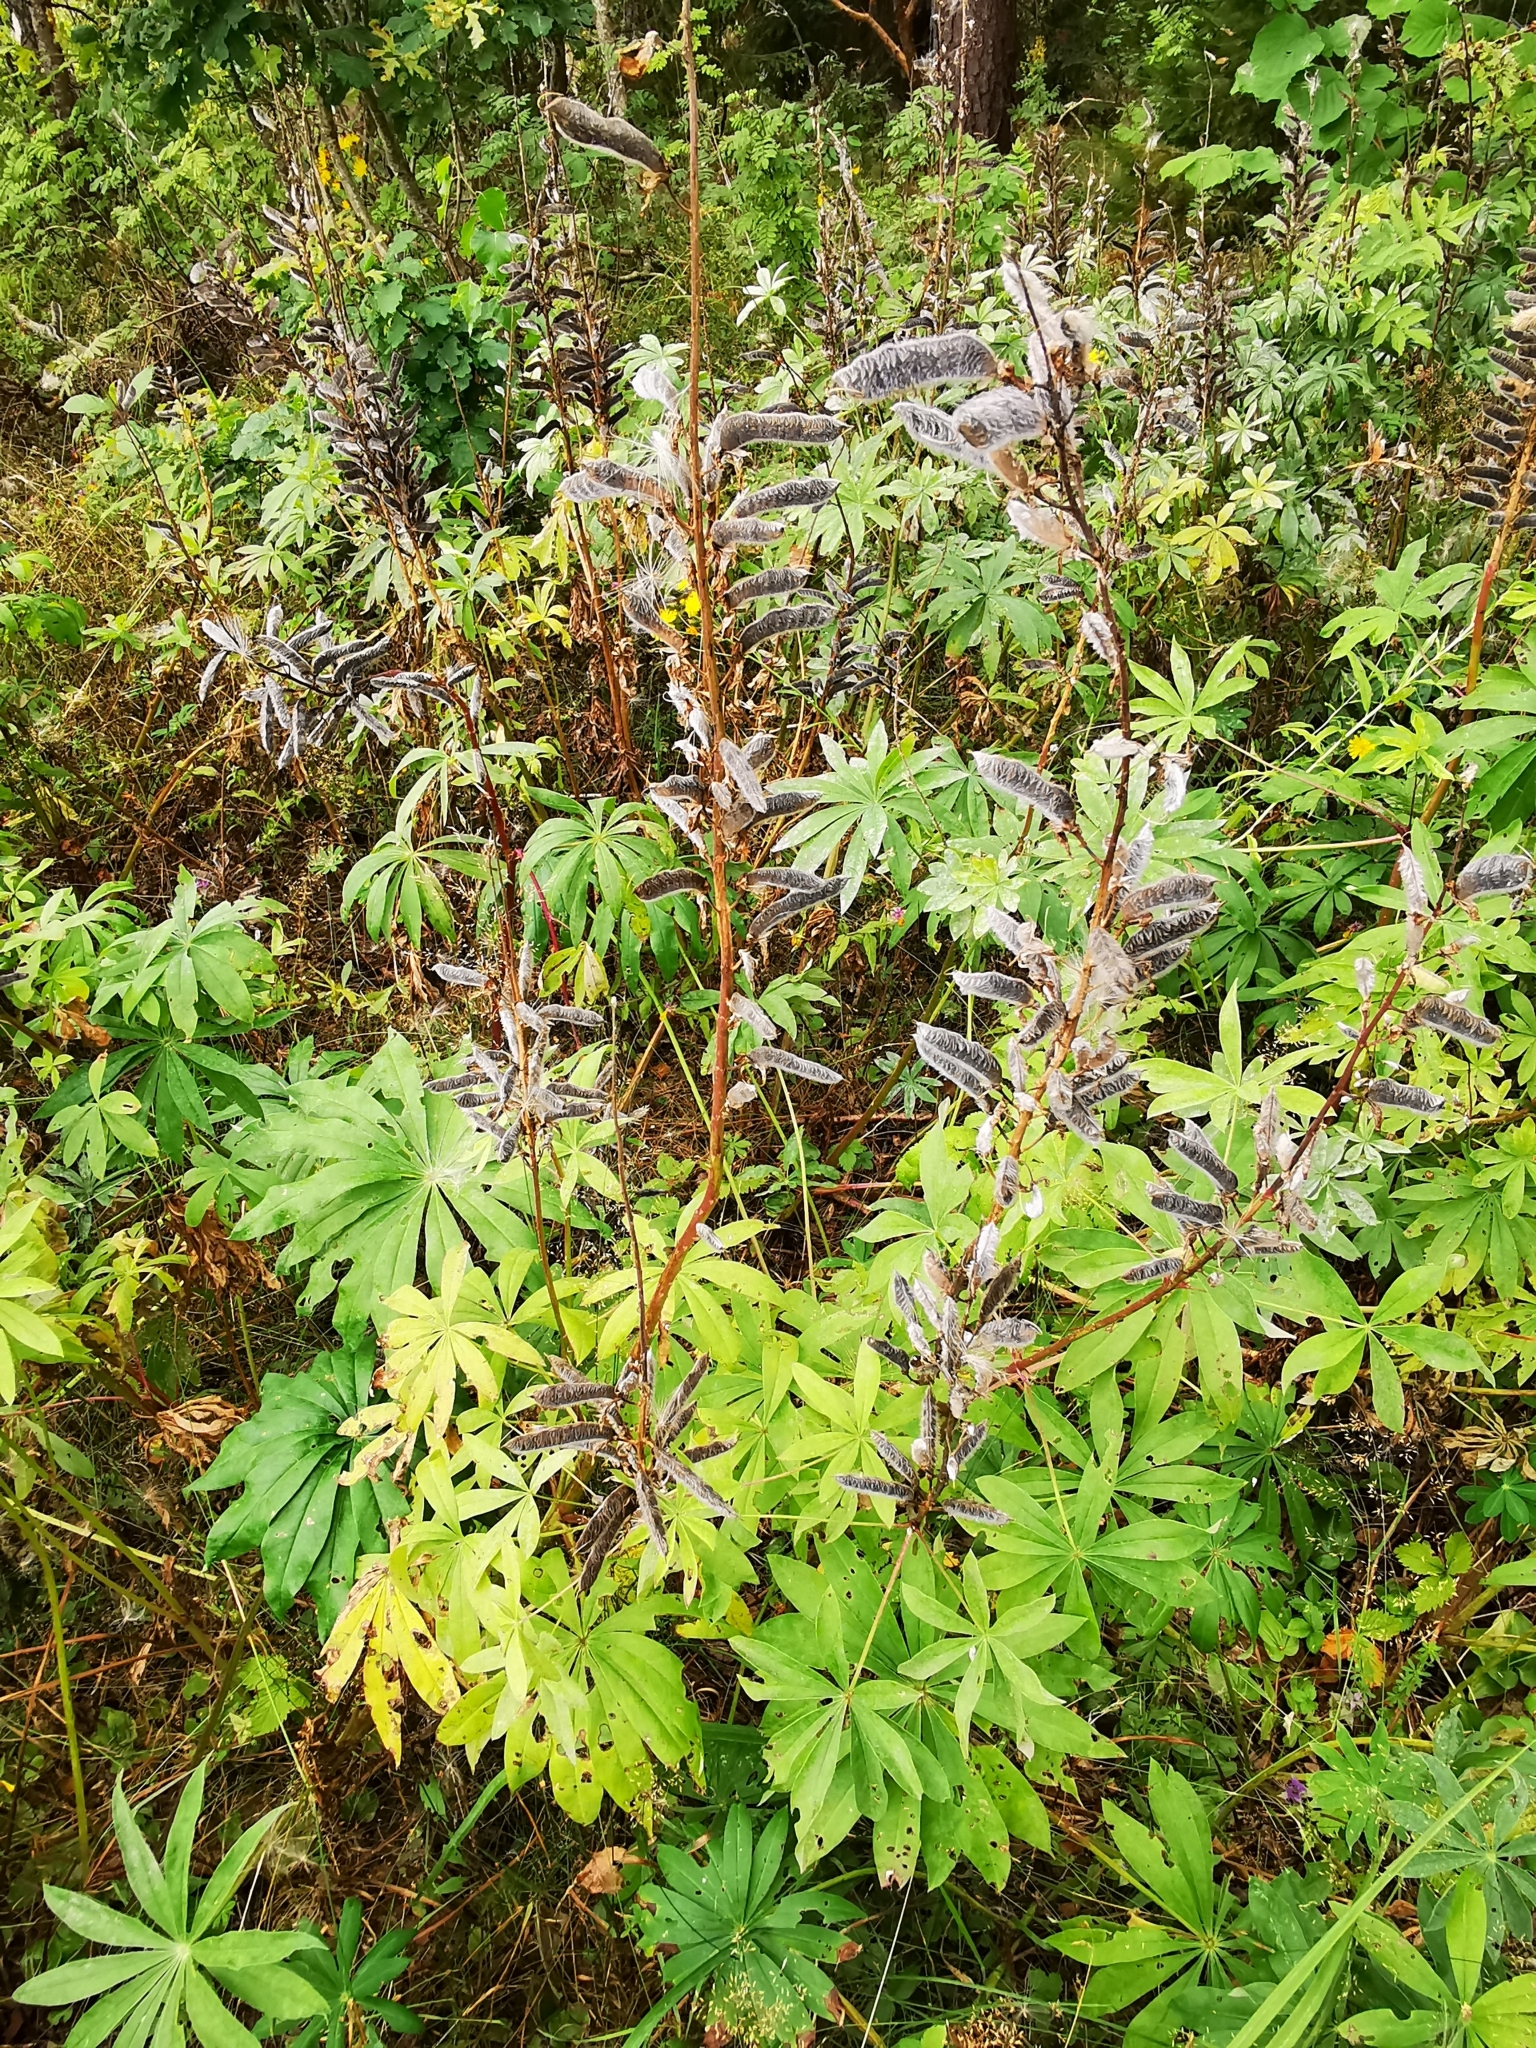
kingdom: Plantae
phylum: Tracheophyta
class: Magnoliopsida
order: Fabales
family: Fabaceae
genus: Lupinus
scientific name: Lupinus polyphyllus
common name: Garden lupin
